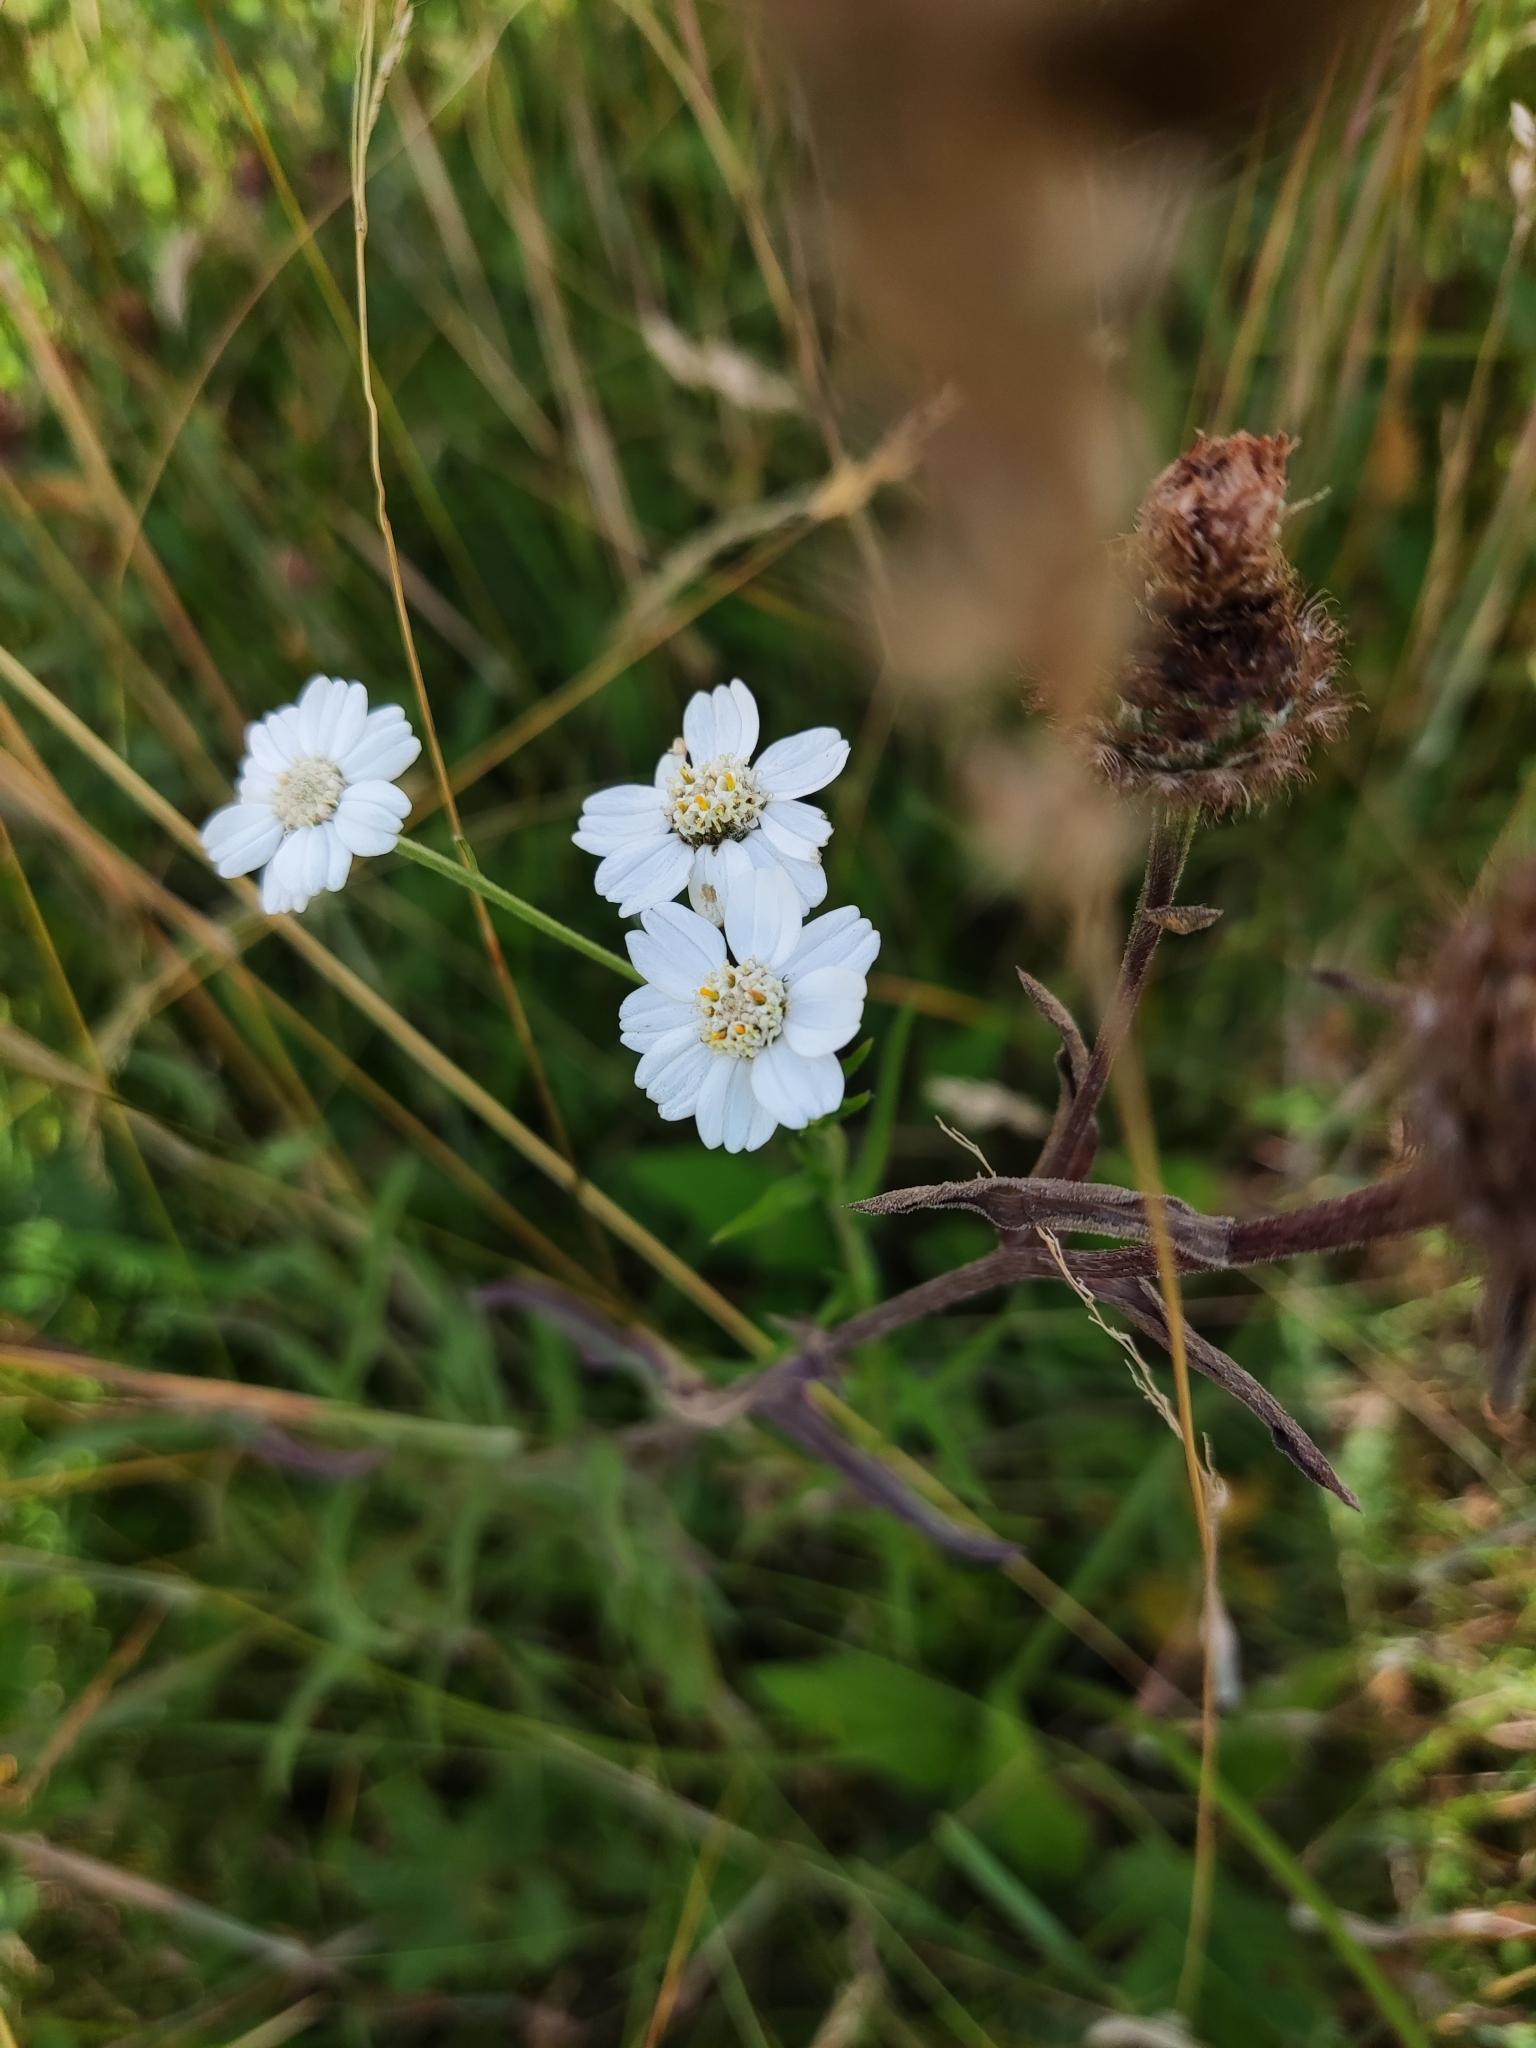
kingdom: Plantae
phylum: Tracheophyta
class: Magnoliopsida
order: Asterales
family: Asteraceae
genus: Achillea
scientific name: Achillea ptarmica
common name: Sneezeweed
